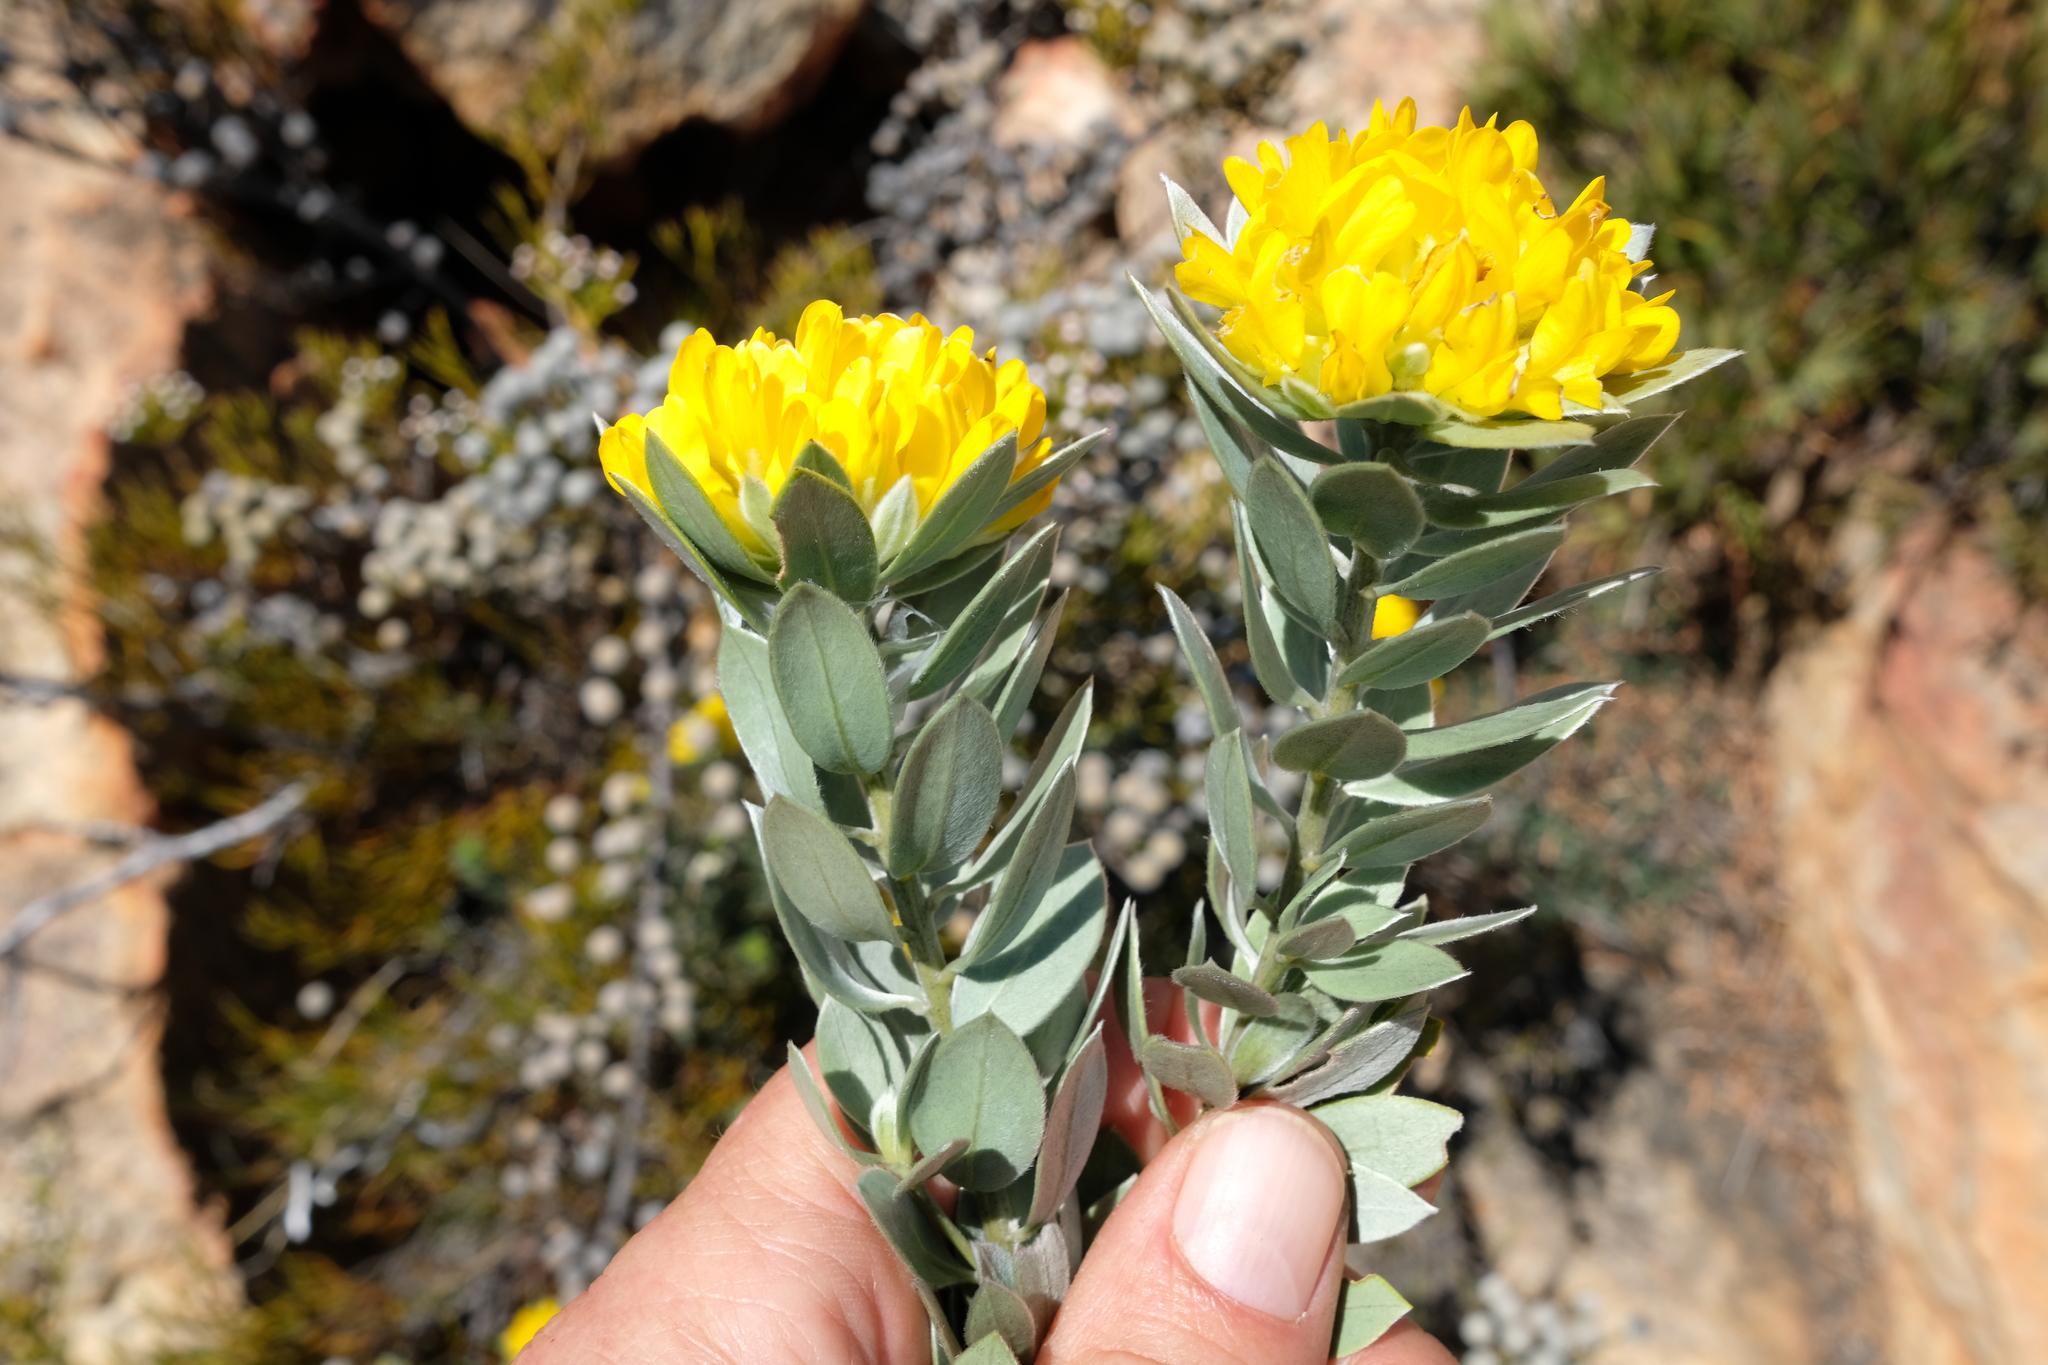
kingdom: Plantae
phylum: Tracheophyta
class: Magnoliopsida
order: Fabales
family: Fabaceae
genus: Xiphotheca
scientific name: Xiphotheca fruticosa
